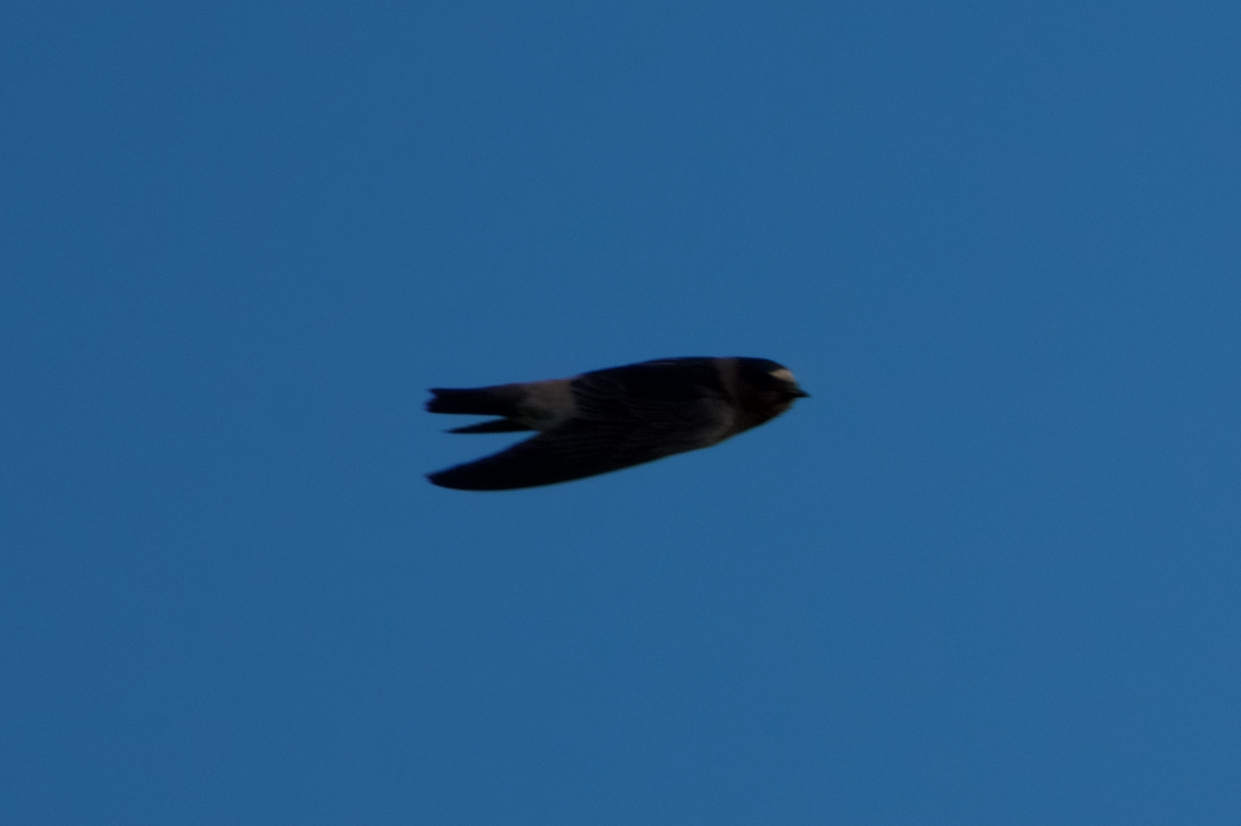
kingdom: Animalia
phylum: Chordata
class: Aves
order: Passeriformes
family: Hirundinidae
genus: Petrochelidon
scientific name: Petrochelidon pyrrhonota
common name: American cliff swallow
